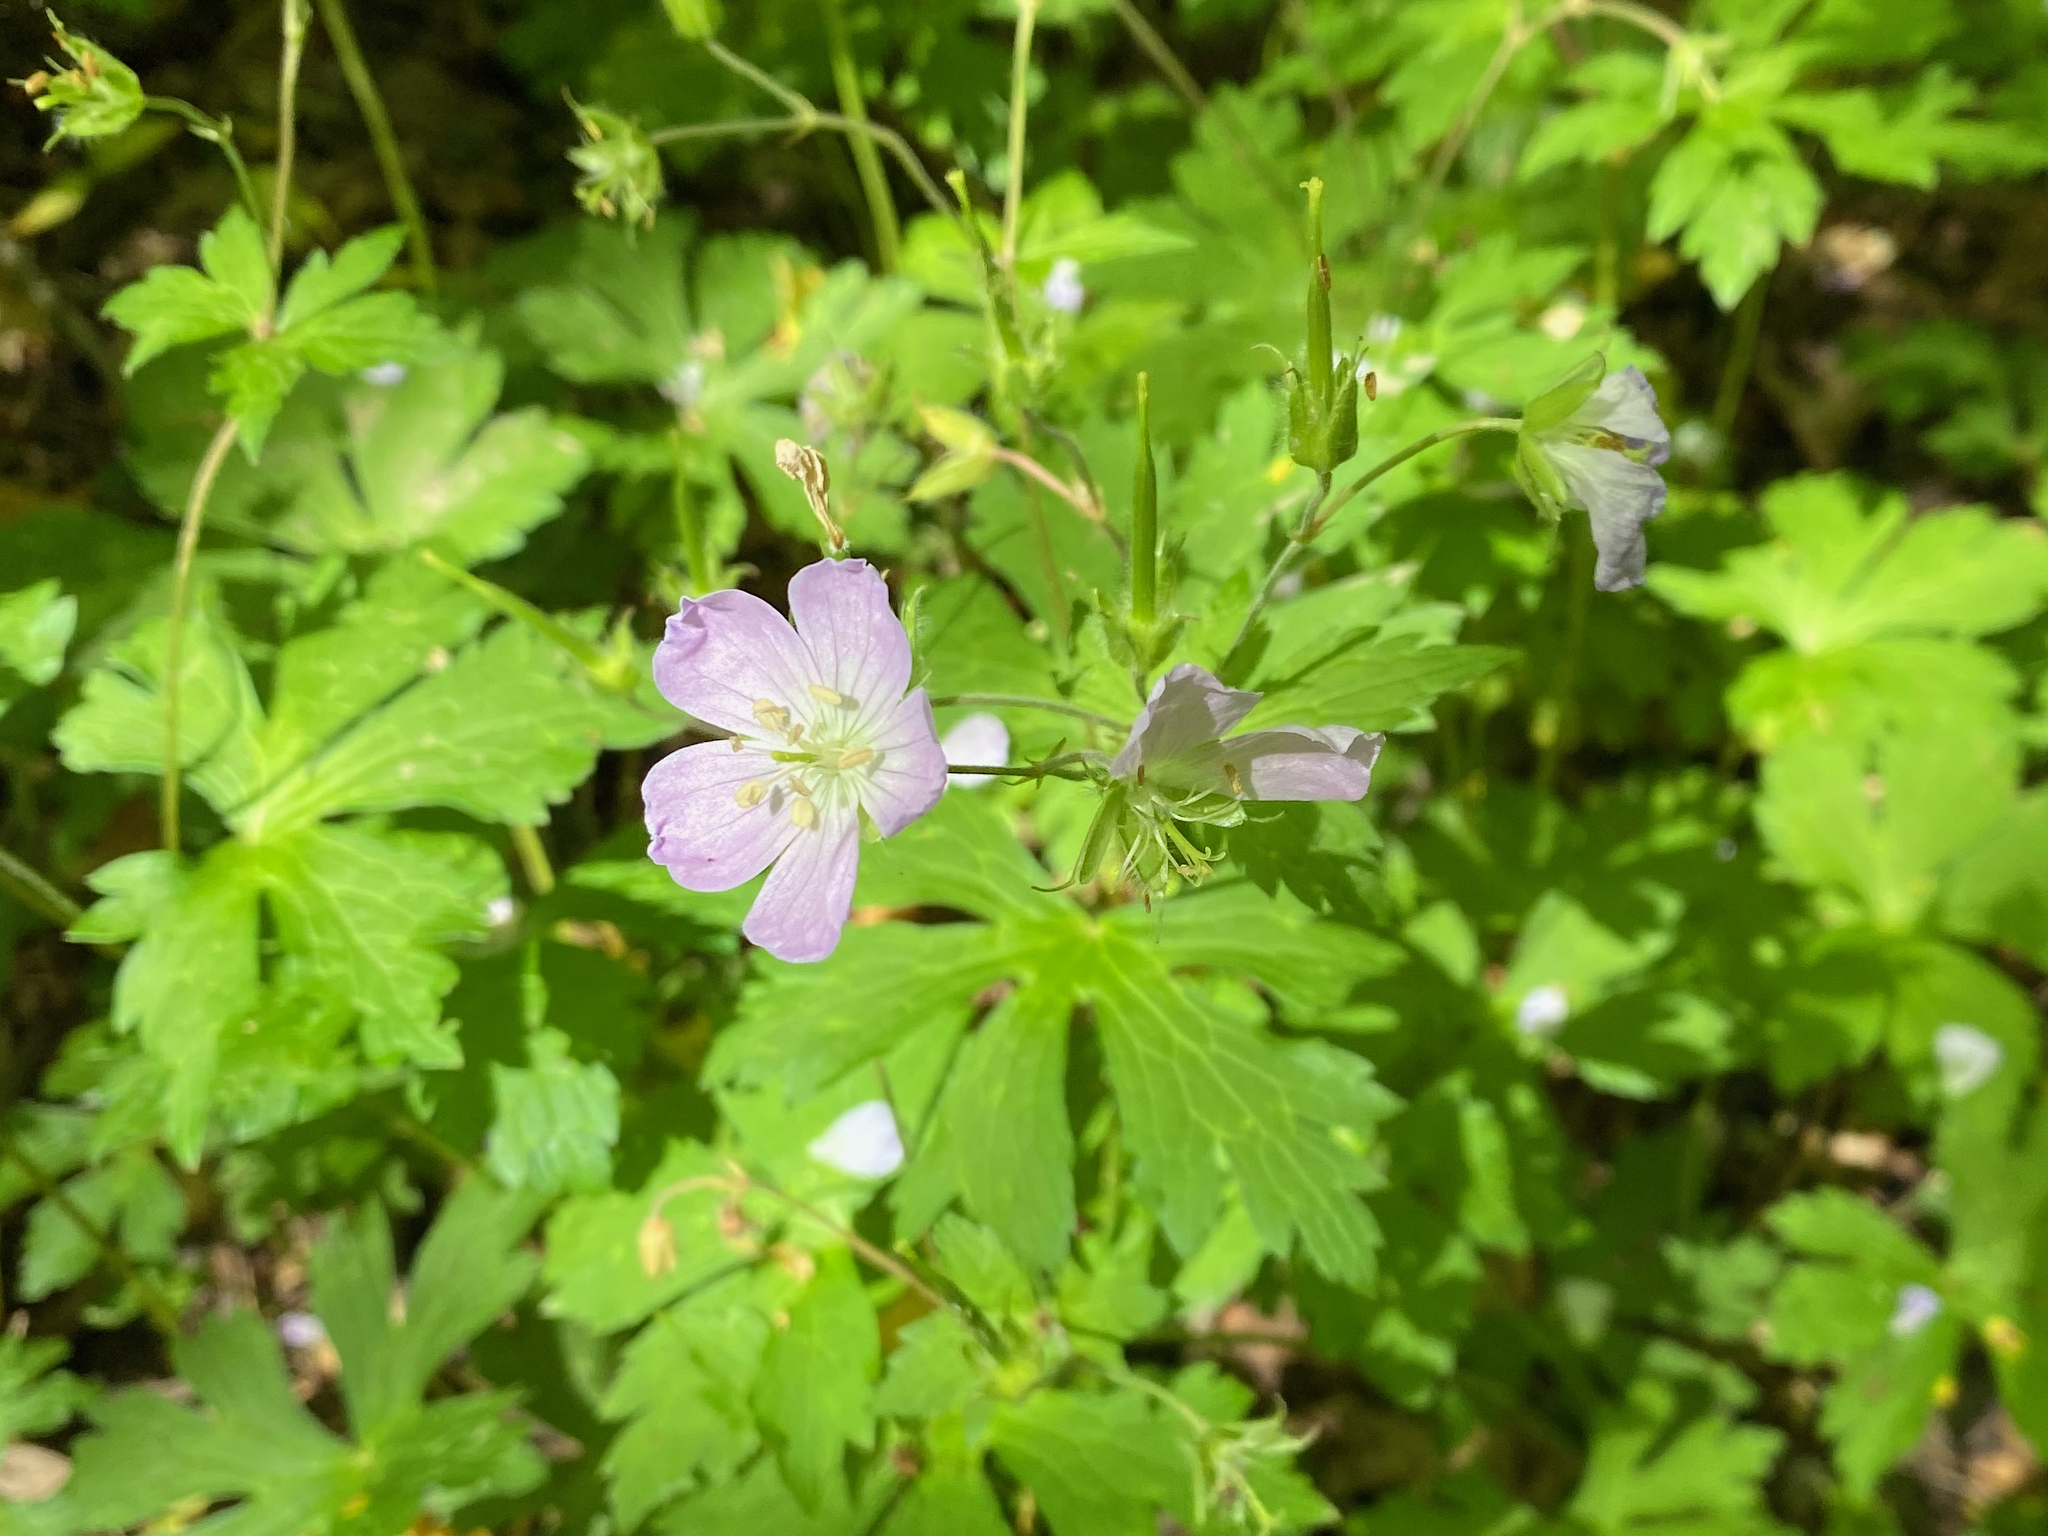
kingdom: Plantae
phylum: Tracheophyta
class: Magnoliopsida
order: Geraniales
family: Geraniaceae
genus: Geranium
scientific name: Geranium maculatum
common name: Spotted geranium
